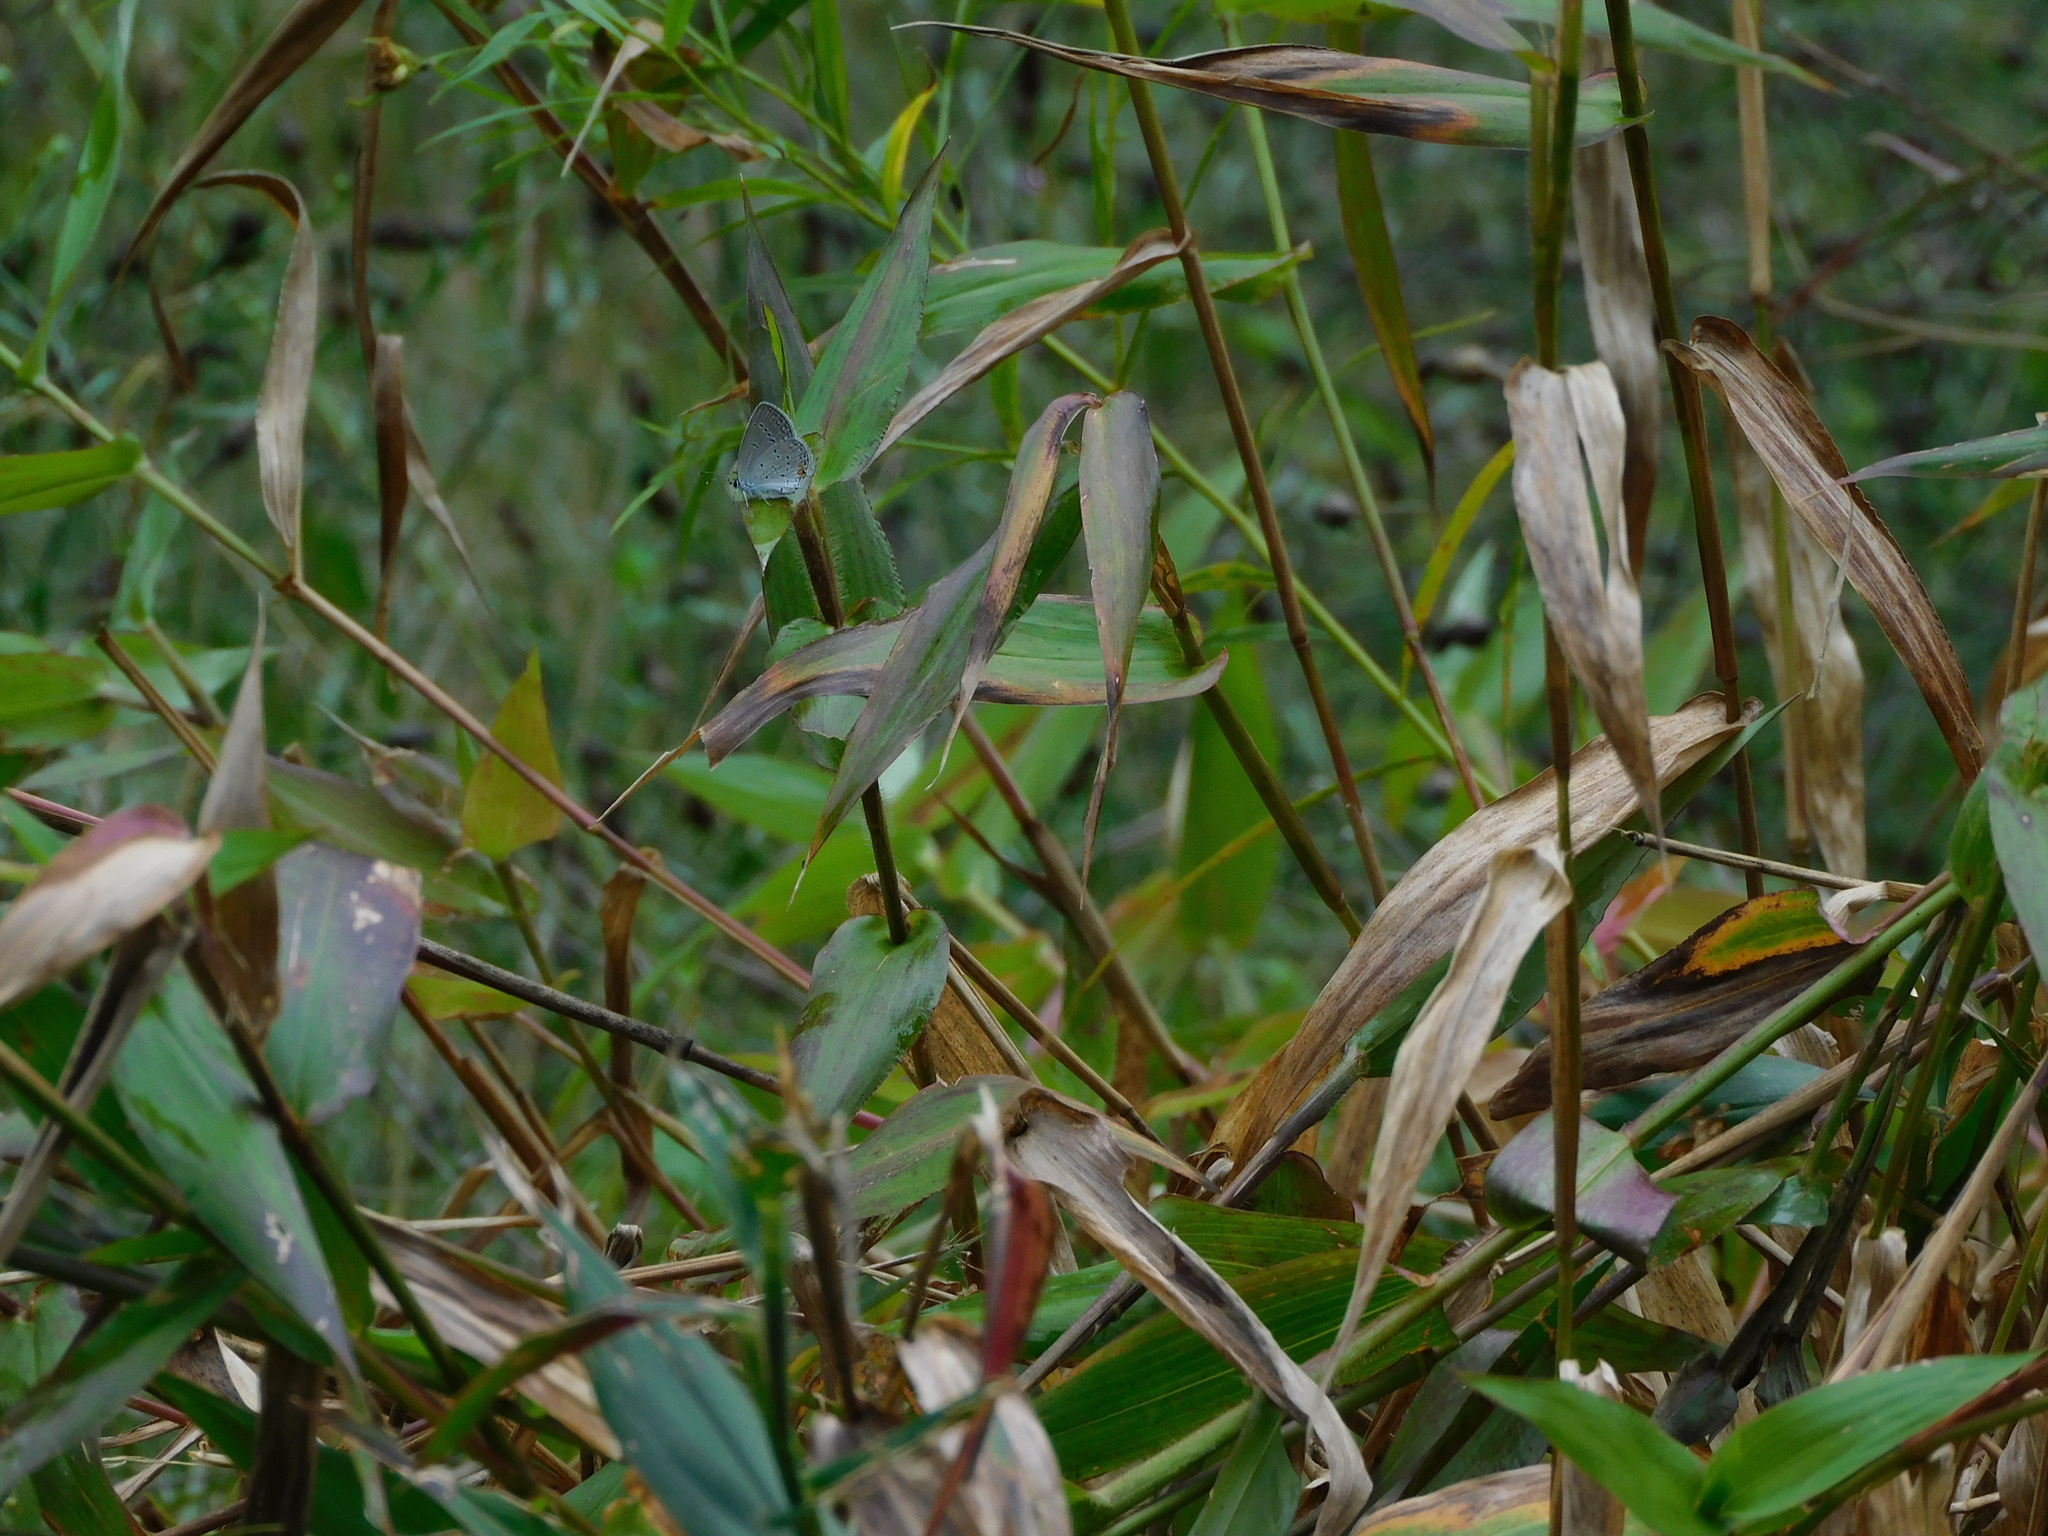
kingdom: Plantae
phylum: Tracheophyta
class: Liliopsida
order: Poales
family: Poaceae
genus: Dichanthelium
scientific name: Dichanthelium clandestinum
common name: Deer-tongue grass
